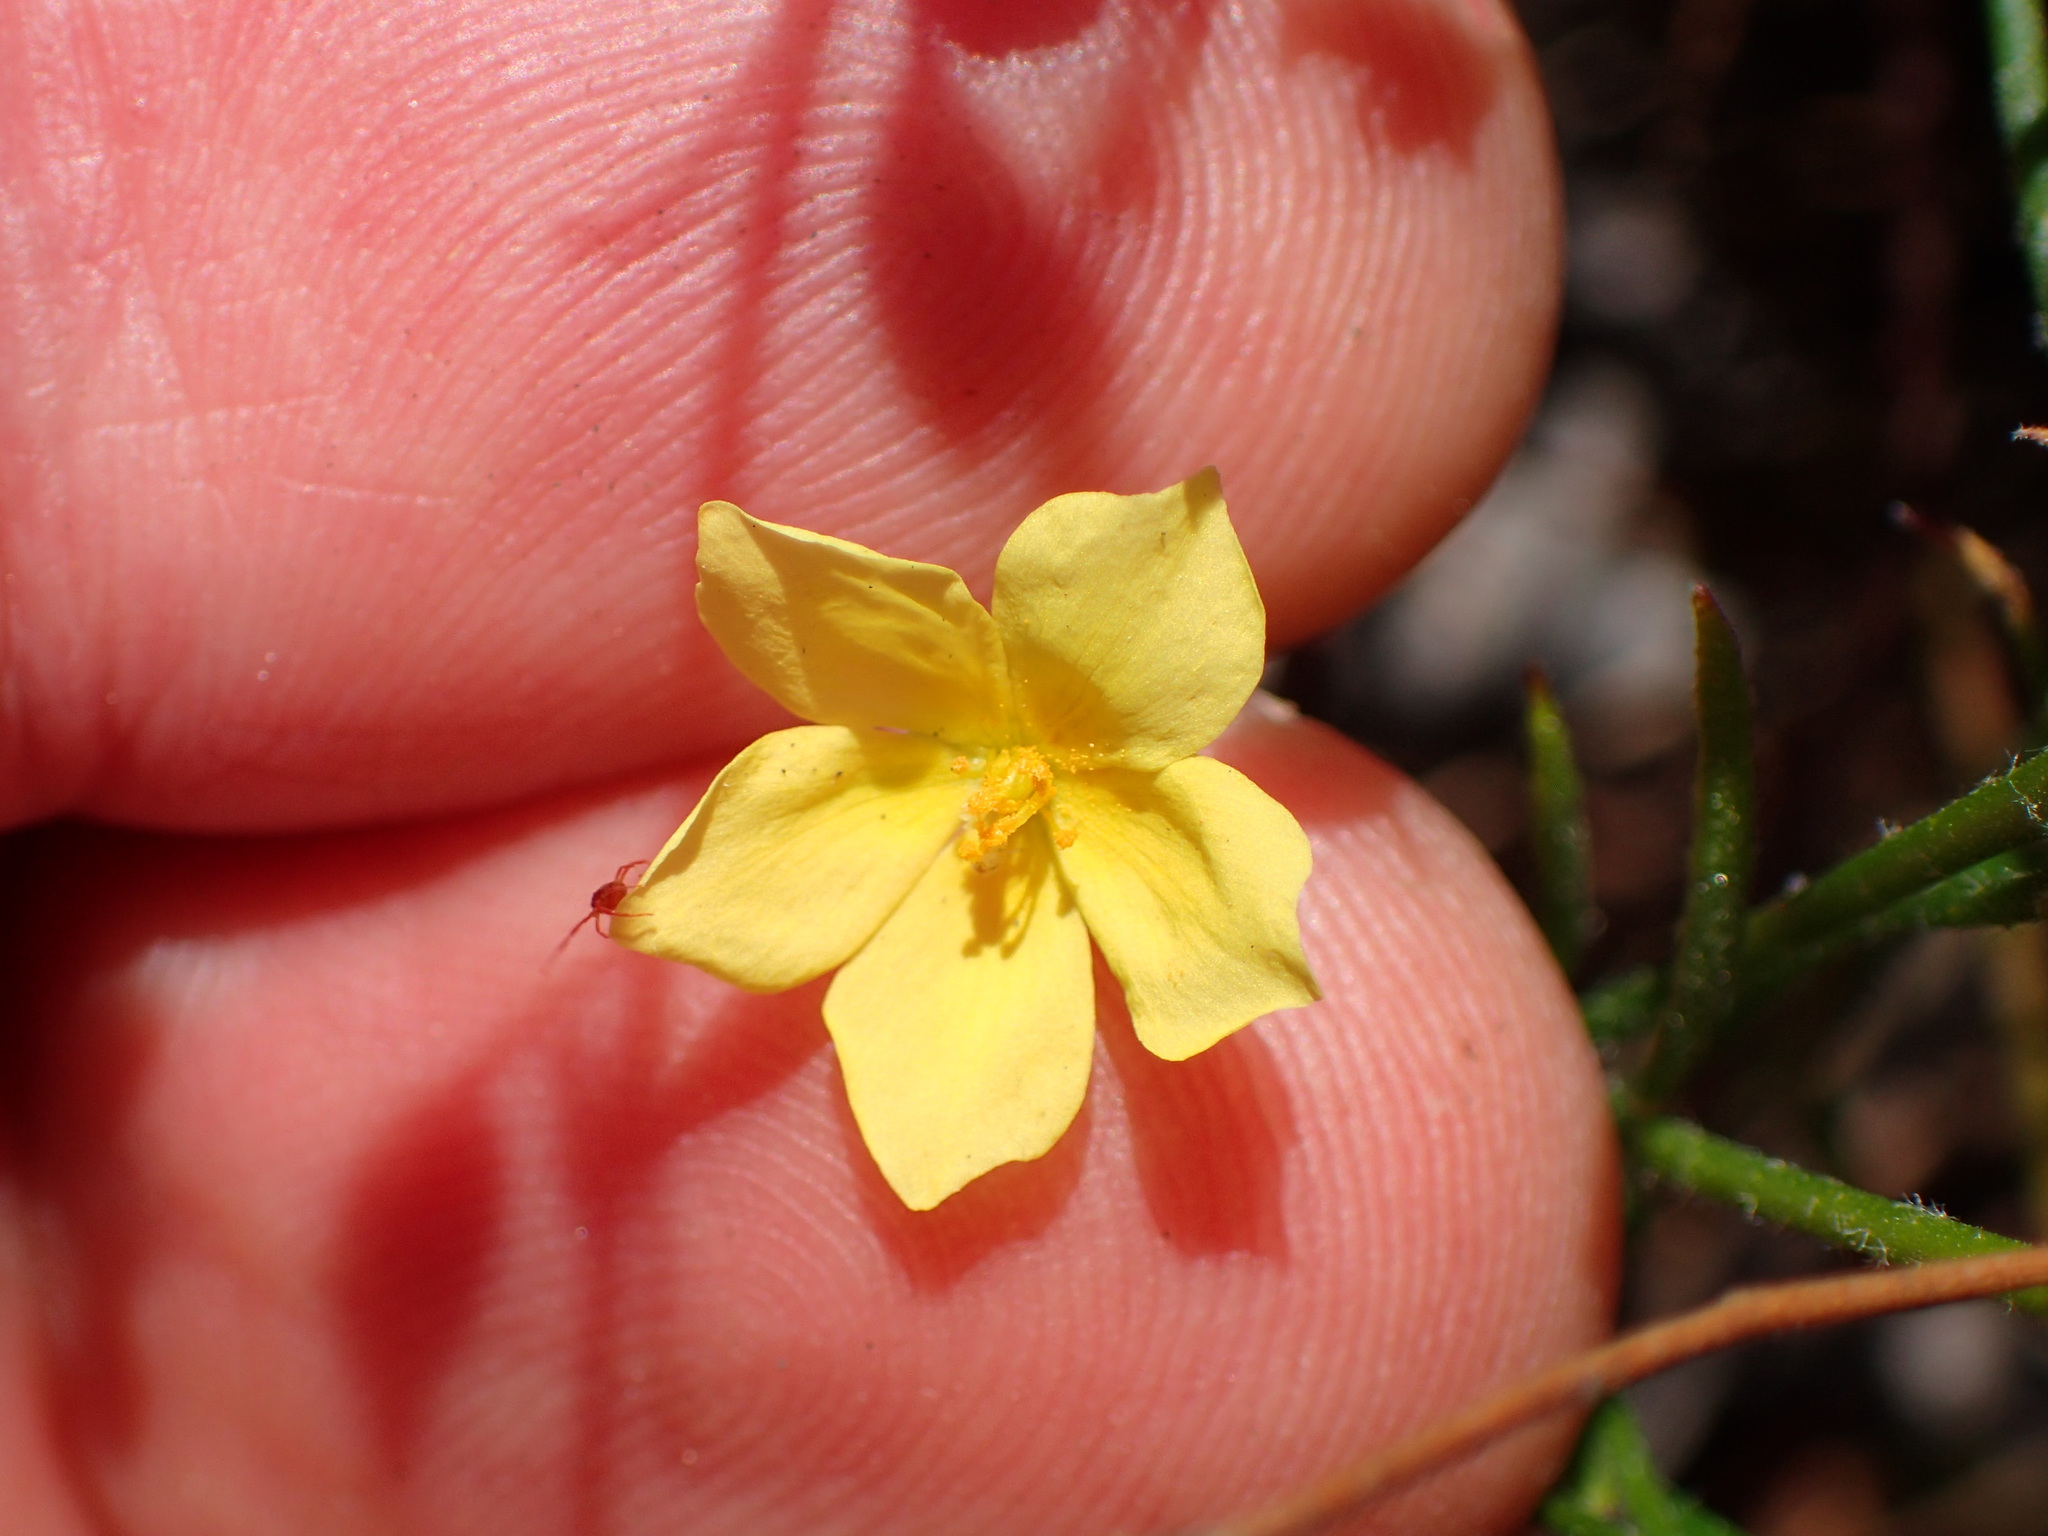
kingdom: Plantae
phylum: Tracheophyta
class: Magnoliopsida
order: Malvales
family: Cistaceae
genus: Crocanthemum
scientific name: Crocanthemum scoparium
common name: Broom-rose
